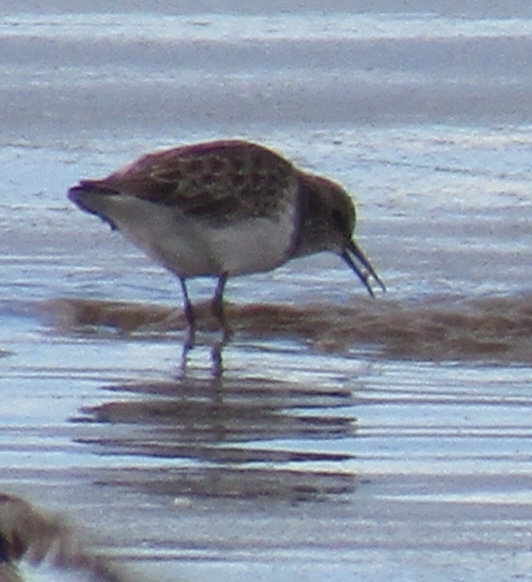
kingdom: Animalia
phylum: Chordata
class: Aves
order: Charadriiformes
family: Scolopacidae
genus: Calidris
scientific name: Calidris minutilla
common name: Least sandpiper
